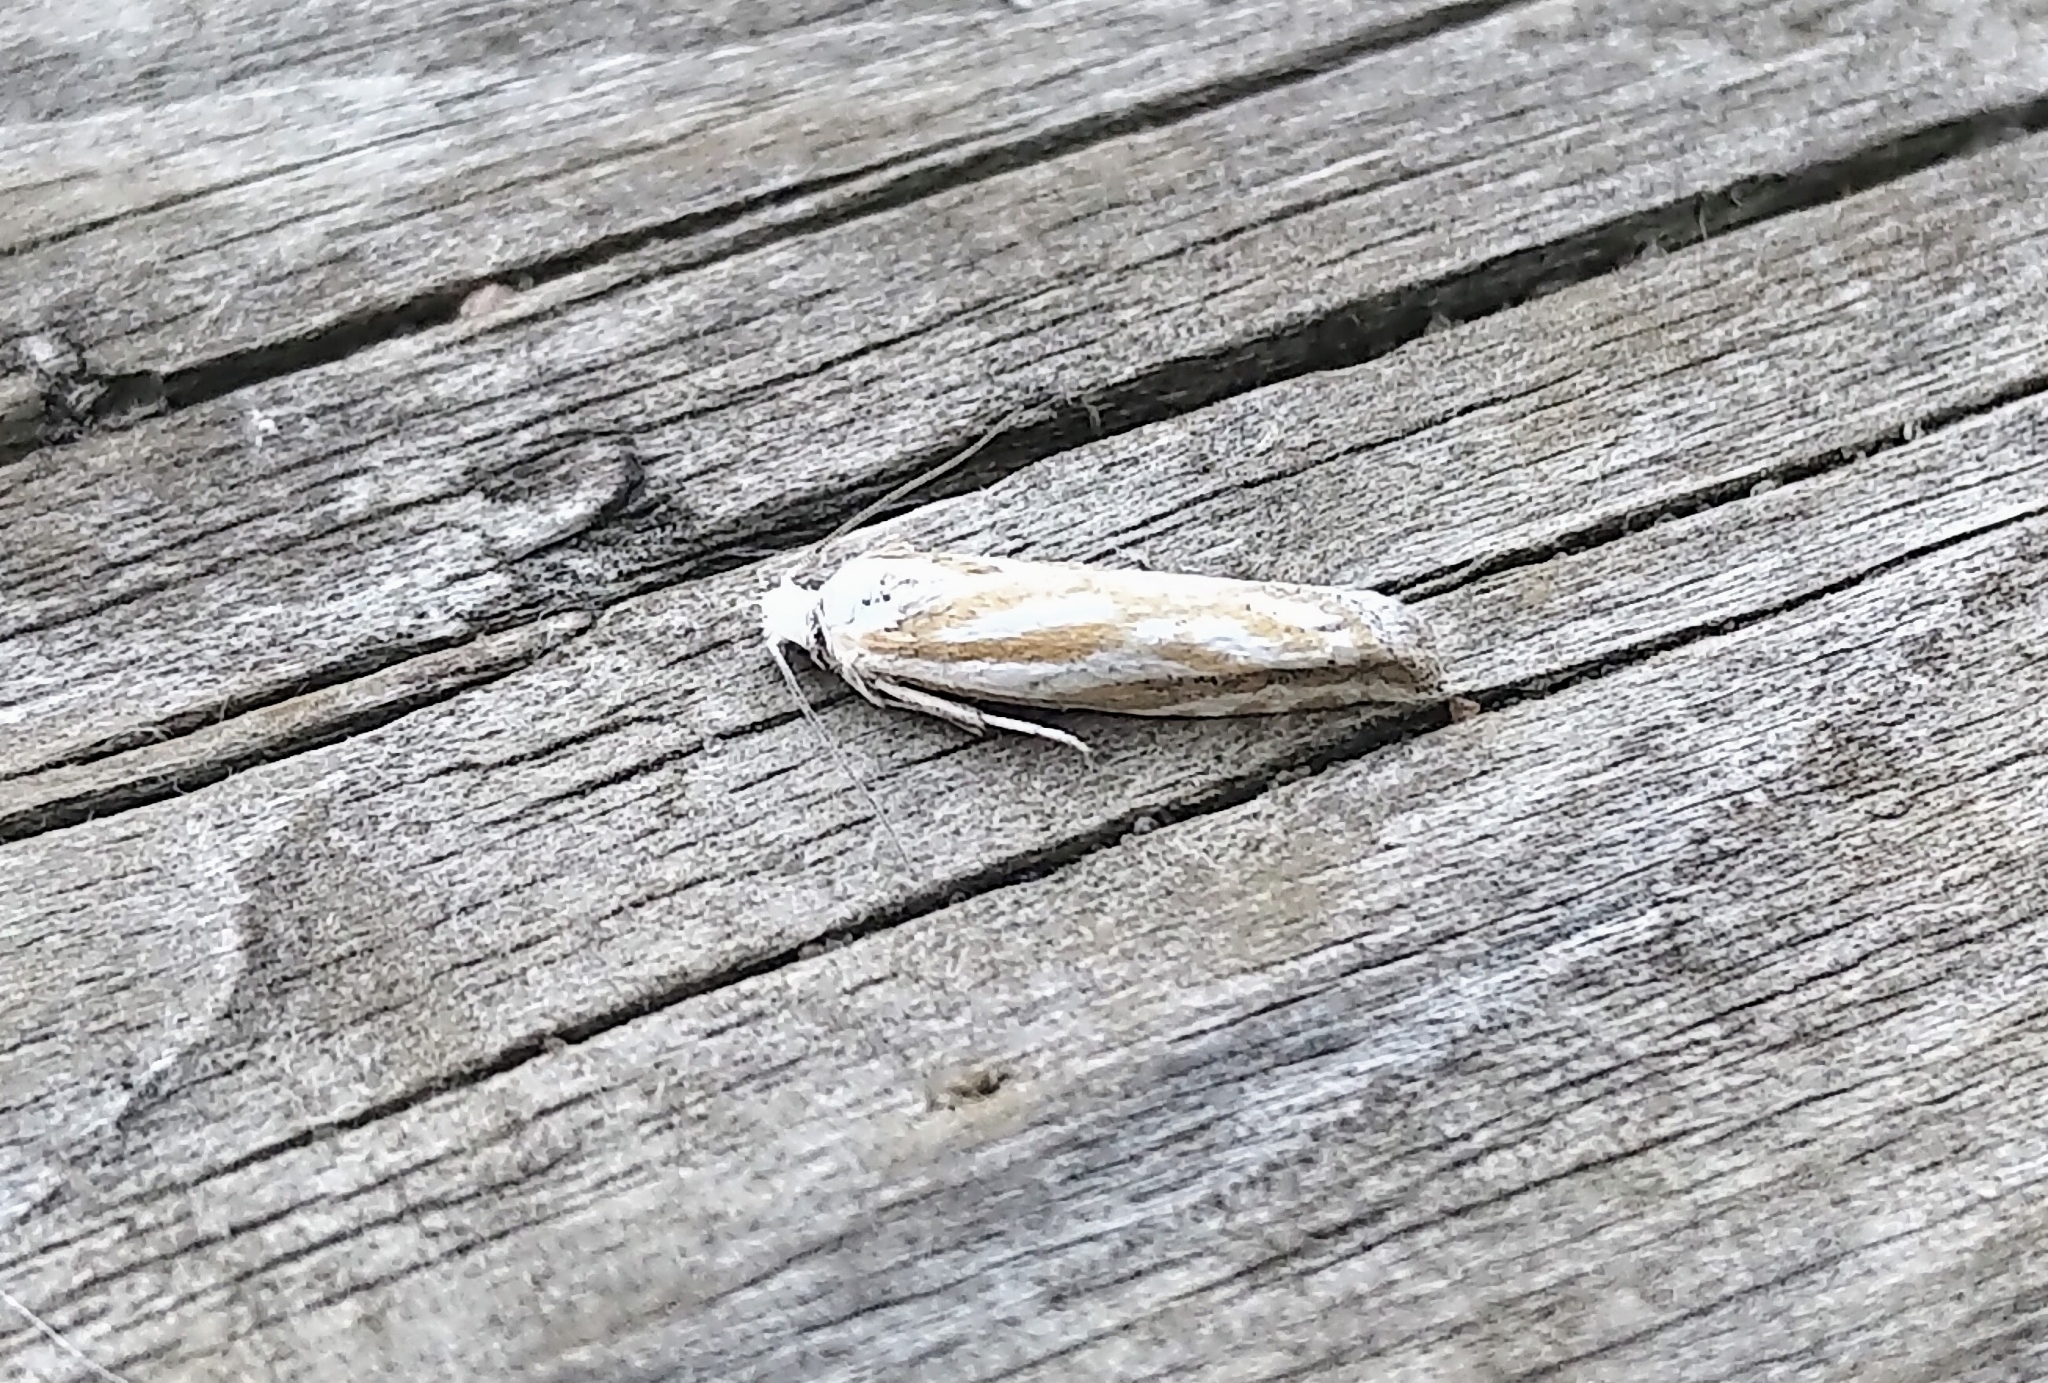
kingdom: Animalia
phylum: Arthropoda
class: Insecta
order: Lepidoptera
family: Tortricidae
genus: Pelochrista
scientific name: Pelochrista morrisoni
